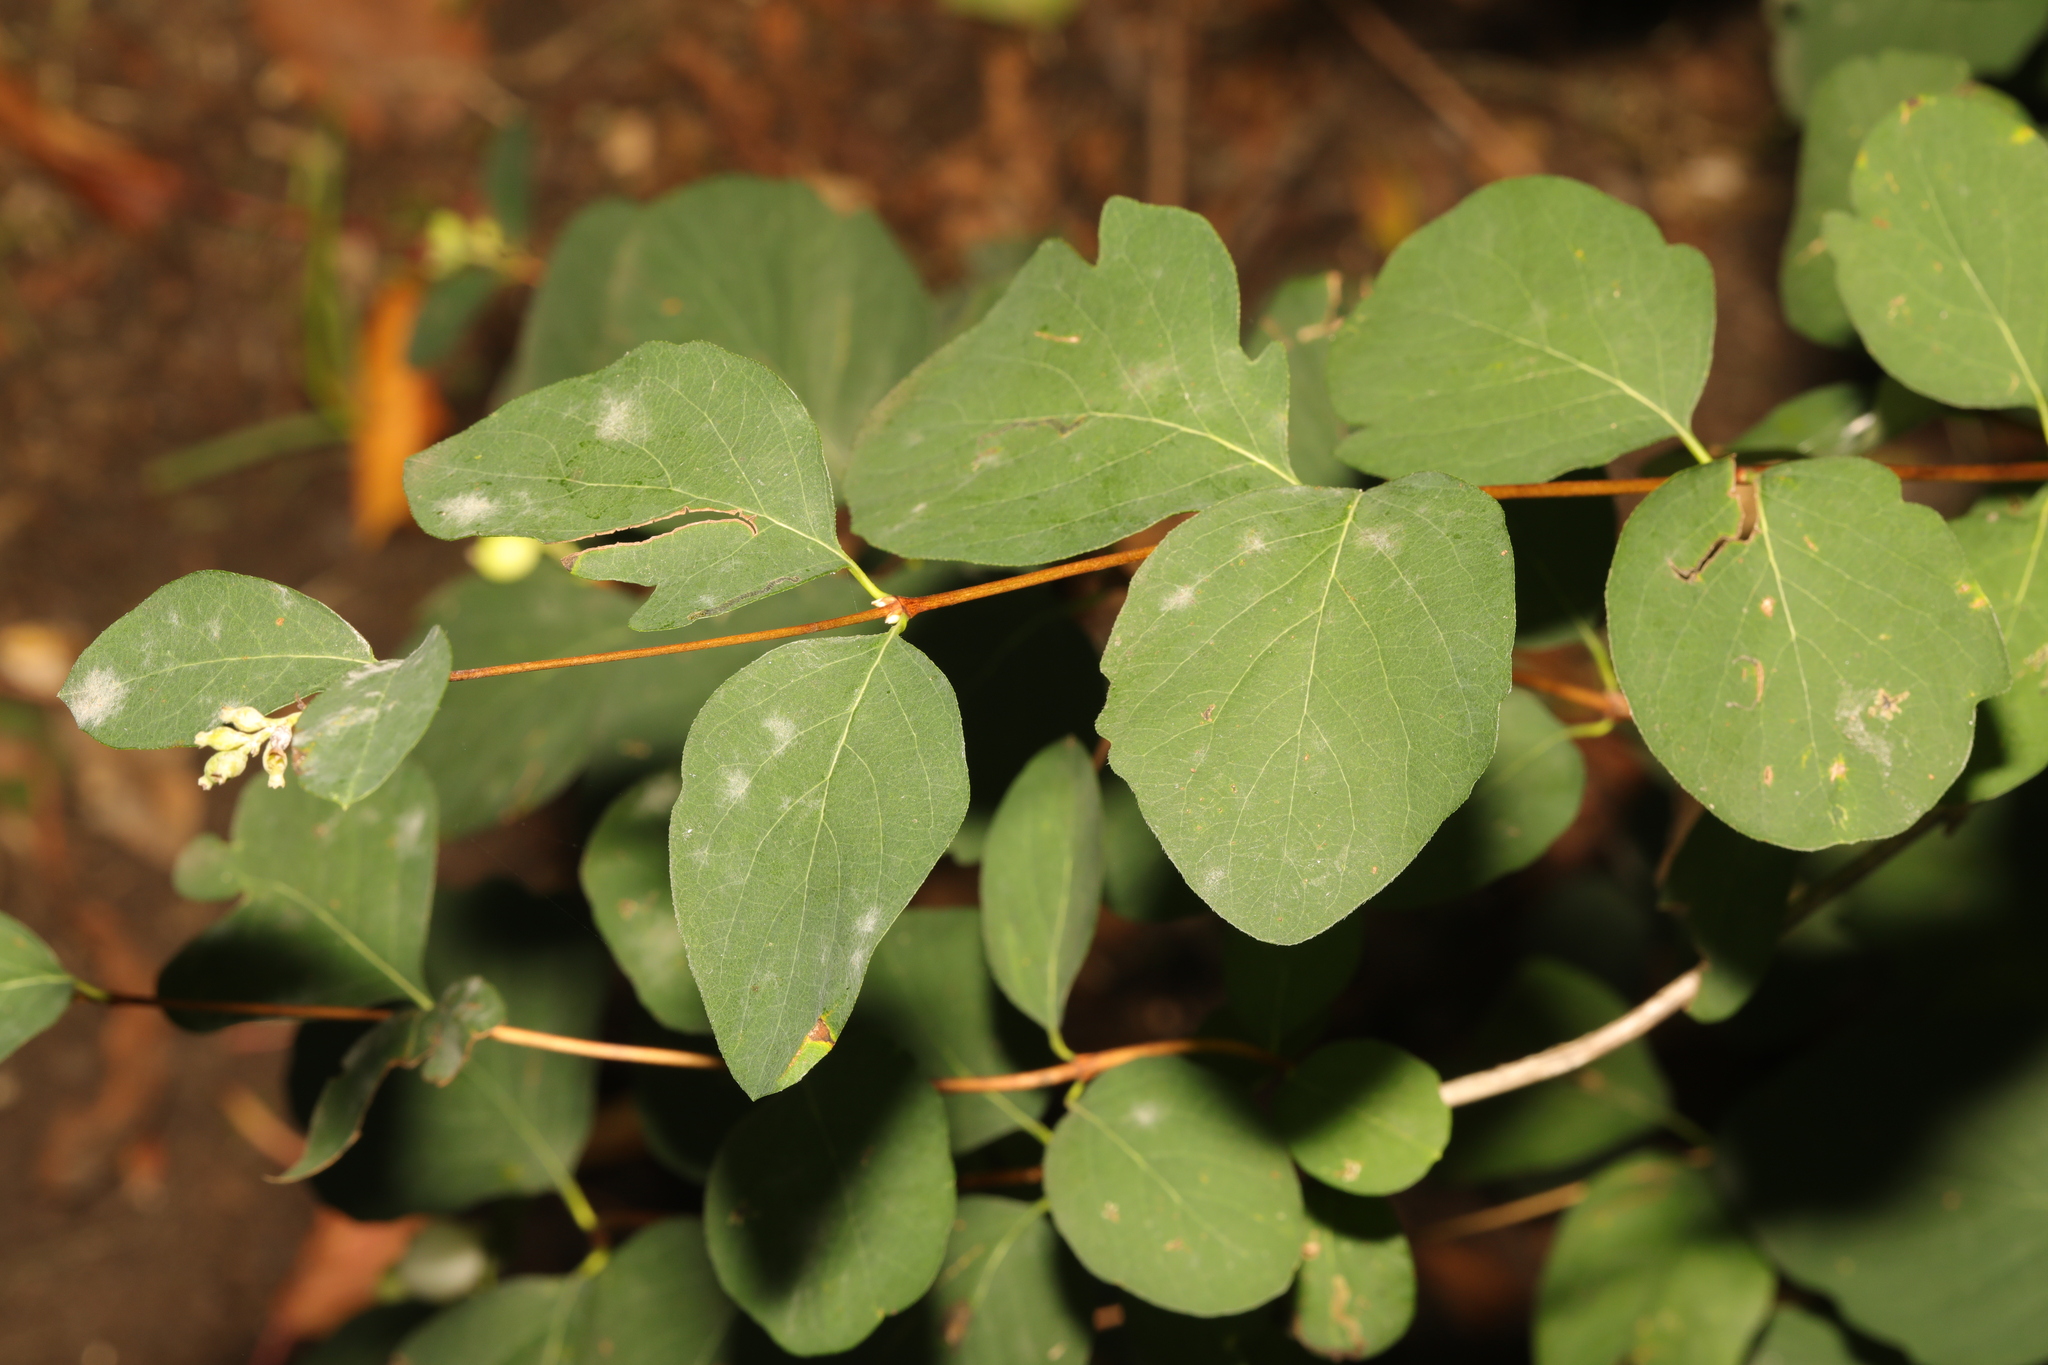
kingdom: Plantae
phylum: Tracheophyta
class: Magnoliopsida
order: Dipsacales
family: Caprifoliaceae
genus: Symphoricarpos
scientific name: Symphoricarpos albus
